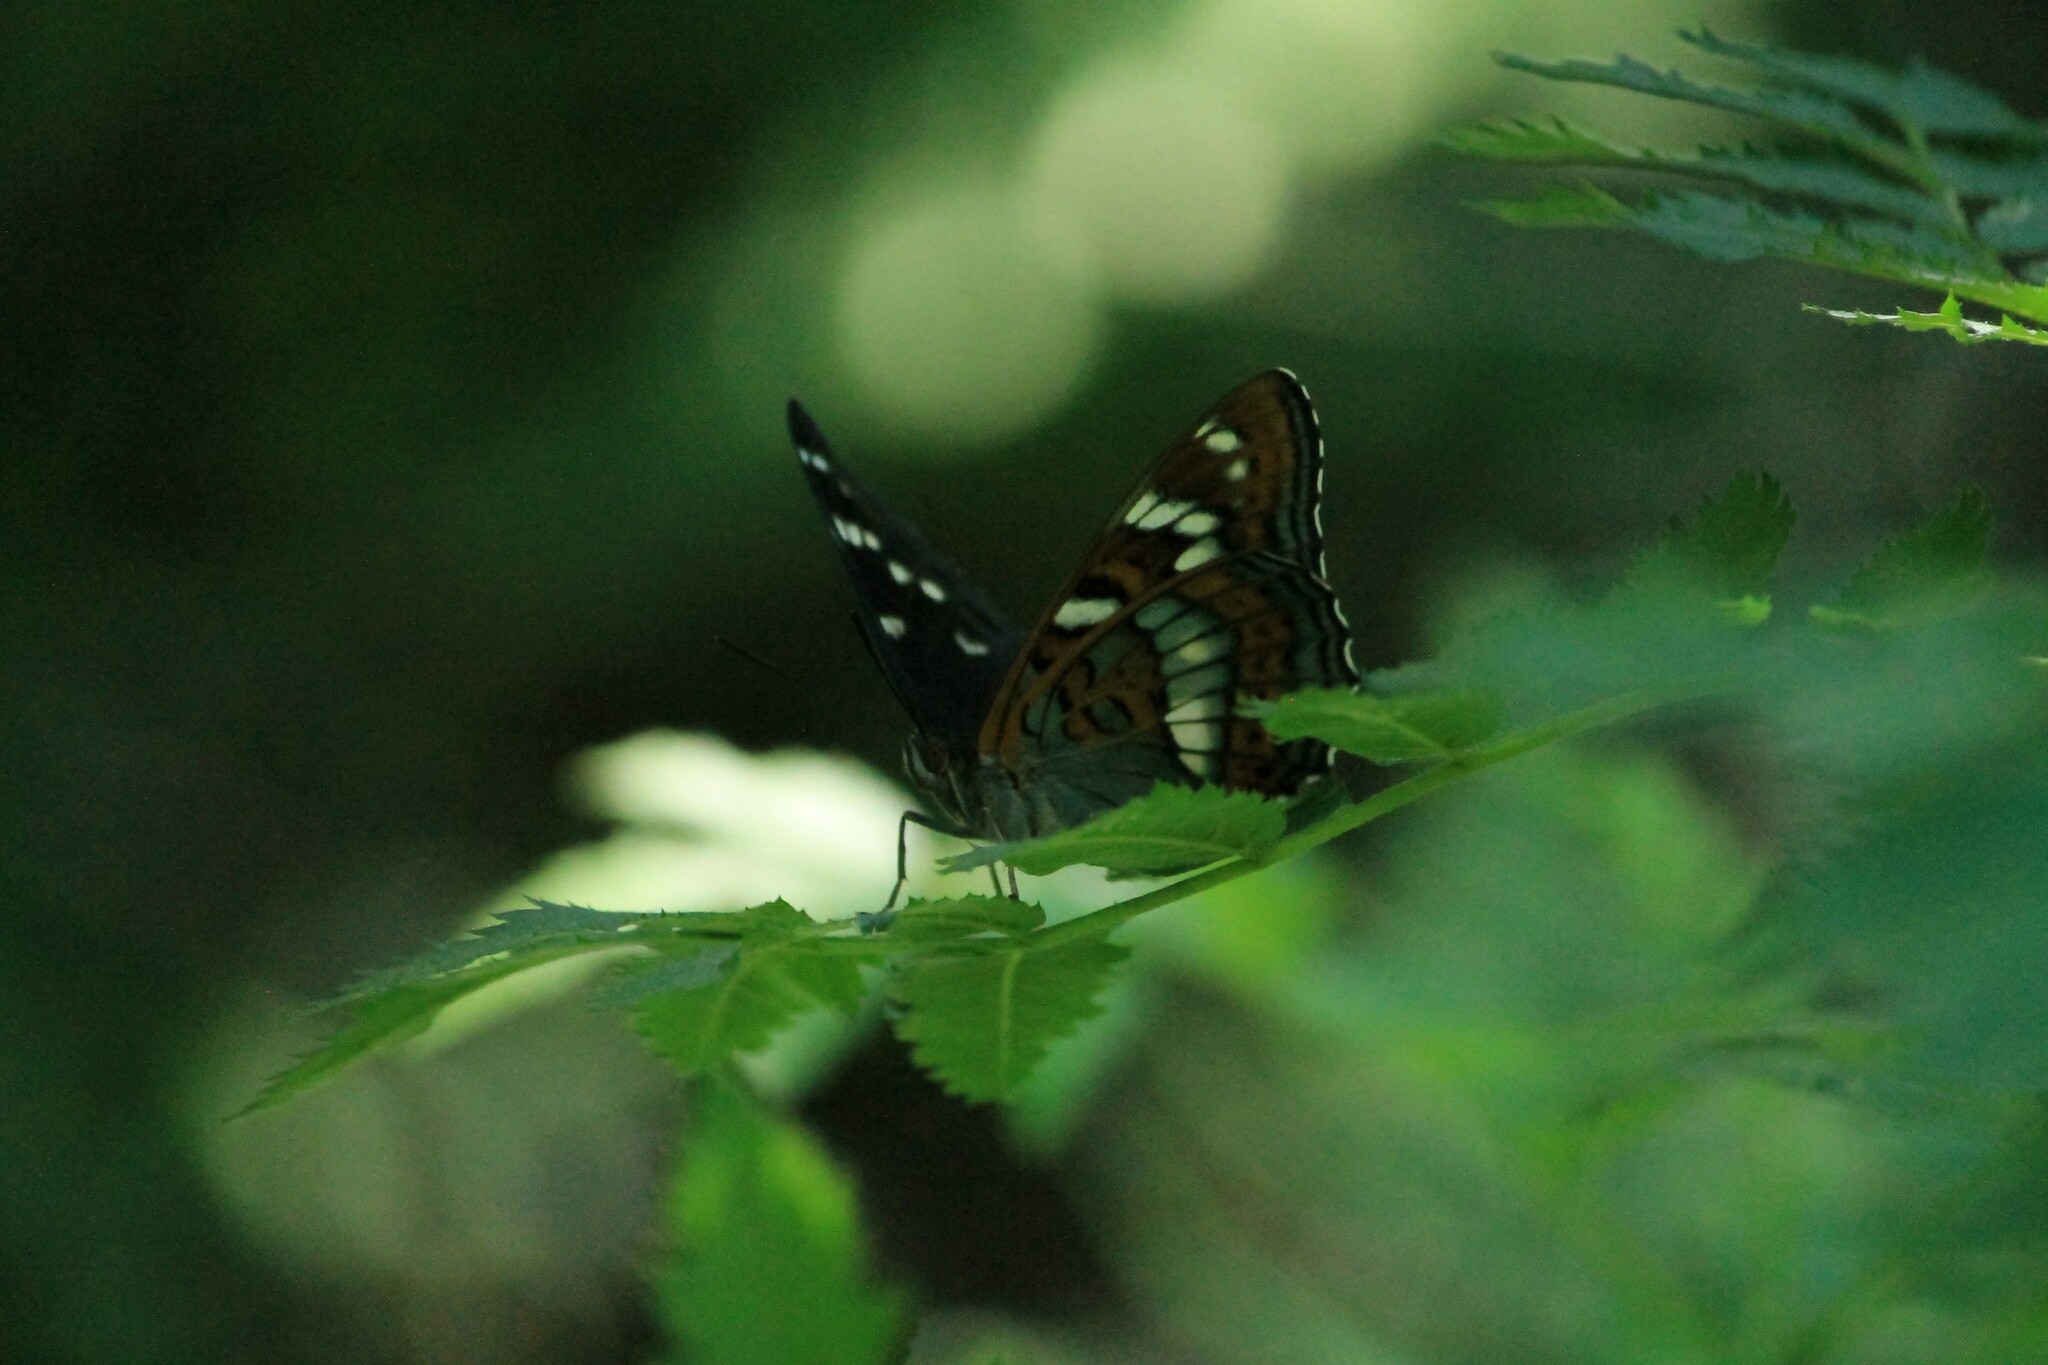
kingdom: Animalia
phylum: Arthropoda
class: Insecta
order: Lepidoptera
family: Nymphalidae
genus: Limenitis
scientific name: Limenitis populi
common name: Poplar admiral
